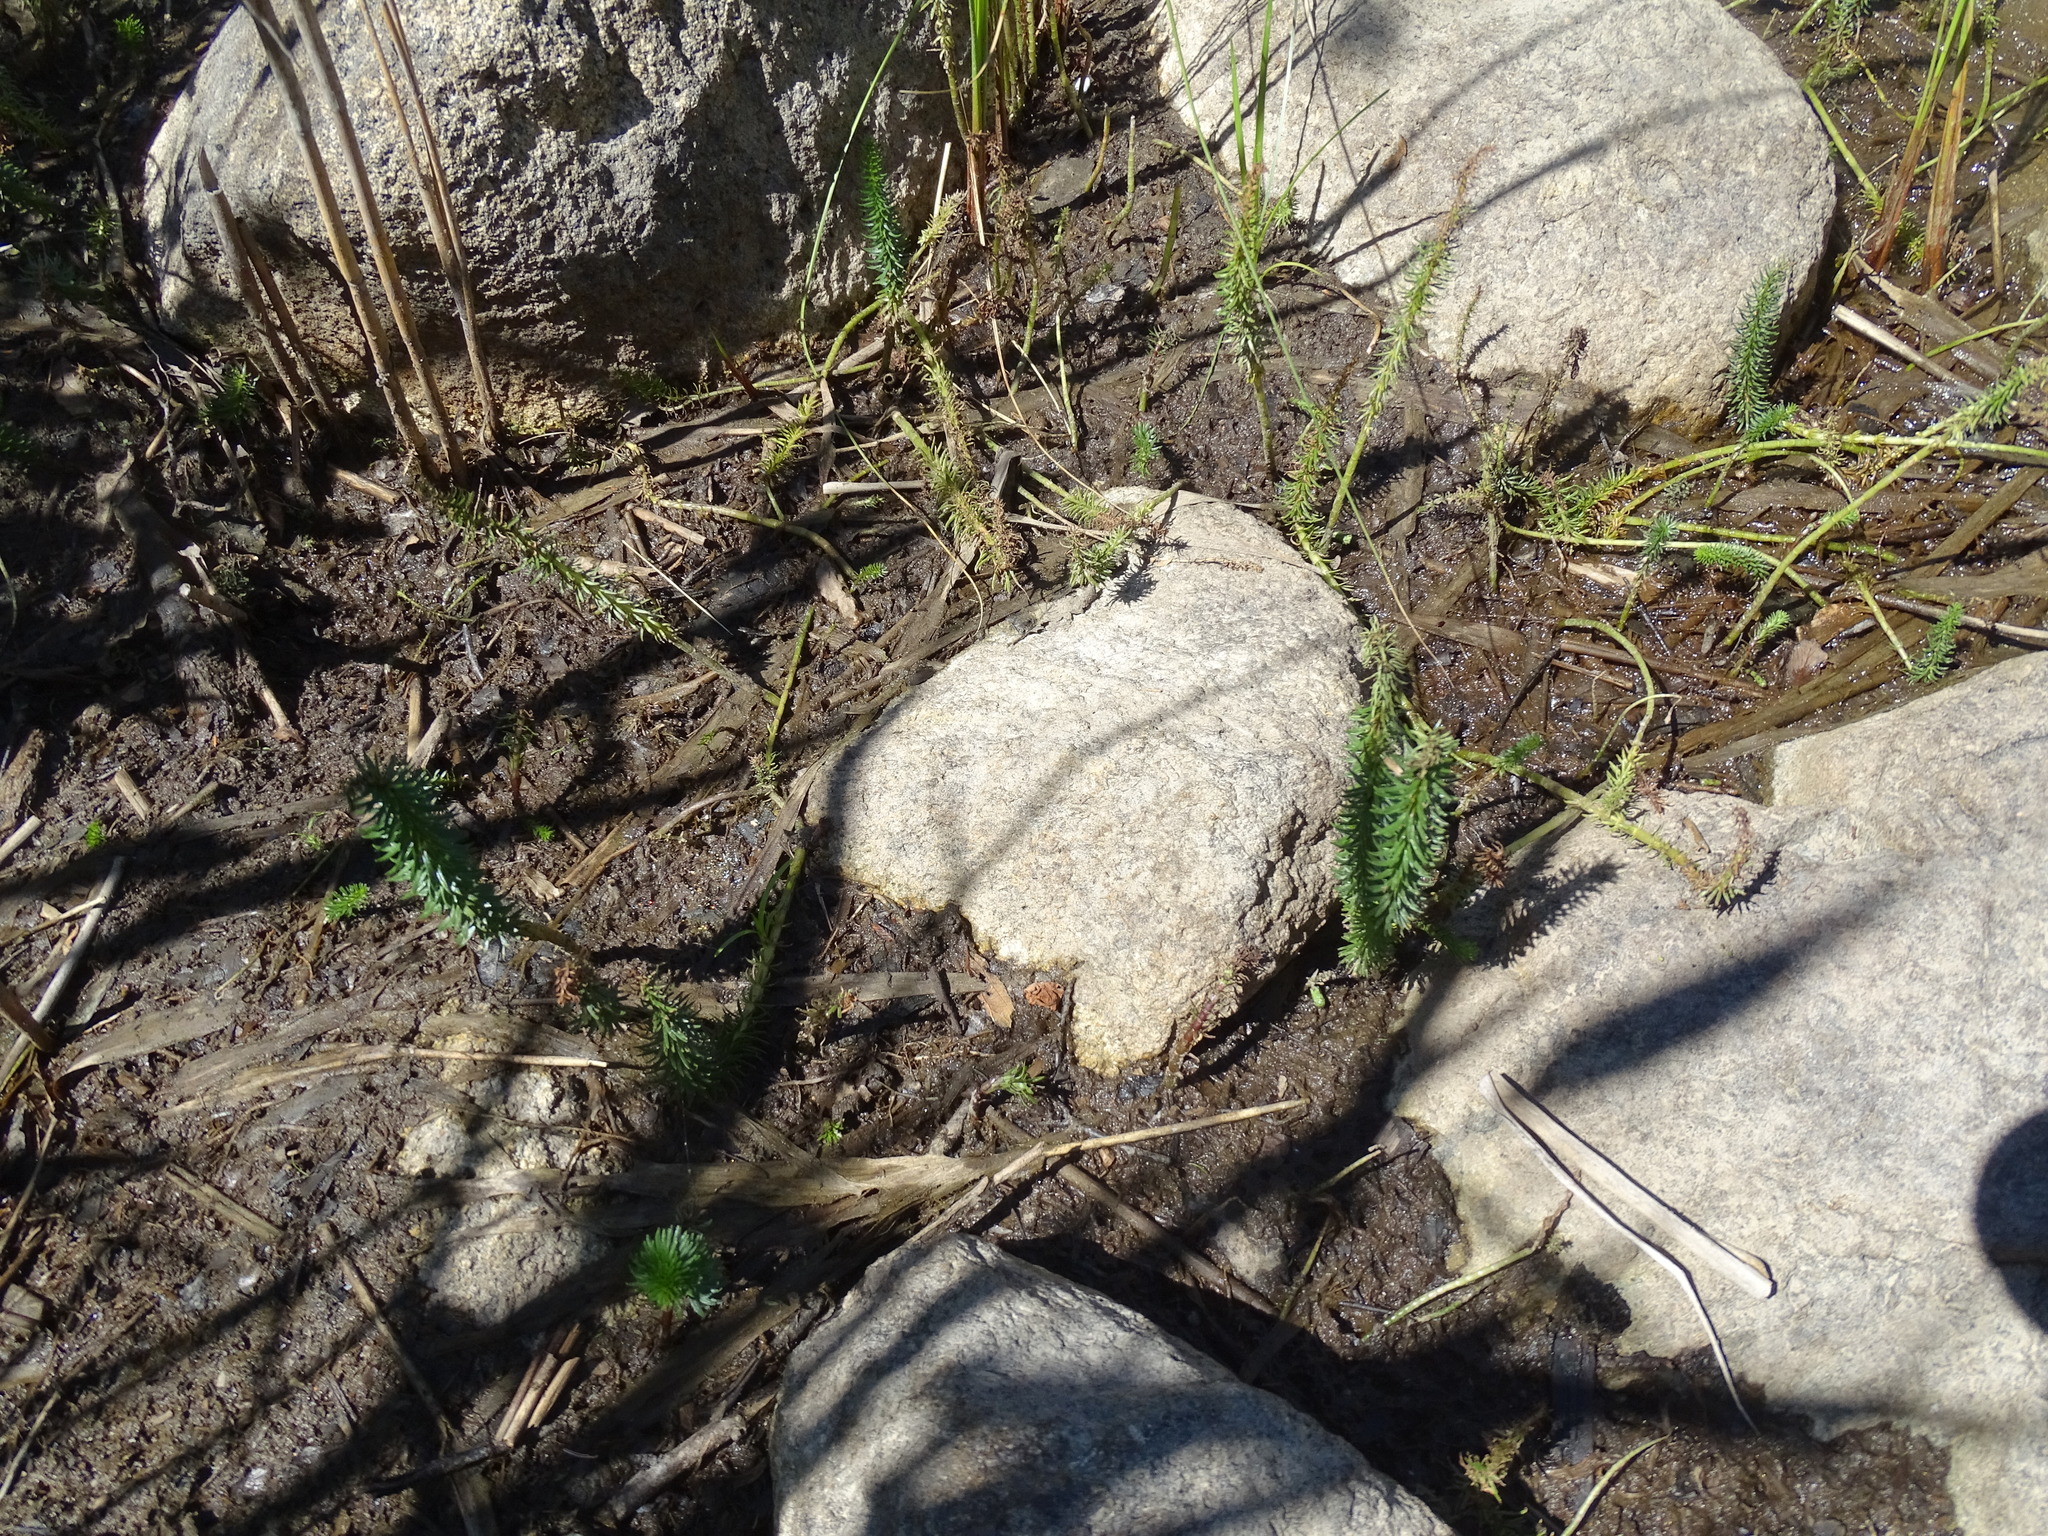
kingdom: Plantae
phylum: Tracheophyta
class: Magnoliopsida
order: Lamiales
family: Plantaginaceae
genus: Hippuris
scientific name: Hippuris vulgaris
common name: Mare's-tail
